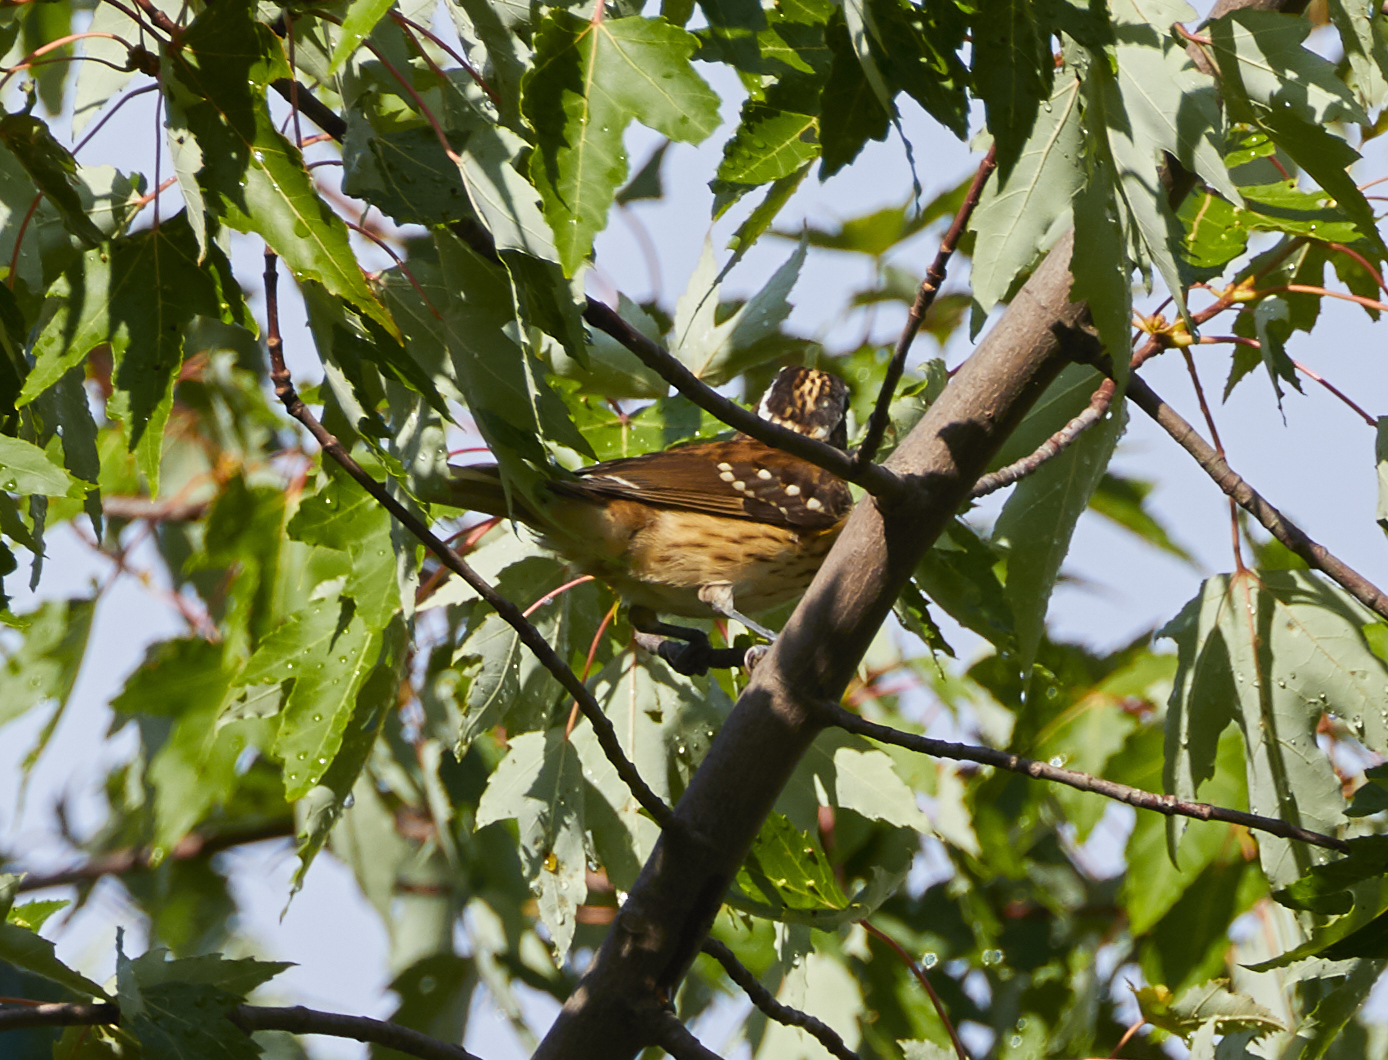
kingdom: Animalia
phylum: Chordata
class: Aves
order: Passeriformes
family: Cardinalidae
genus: Pheucticus
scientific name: Pheucticus ludovicianus
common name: Rose-breasted grosbeak
